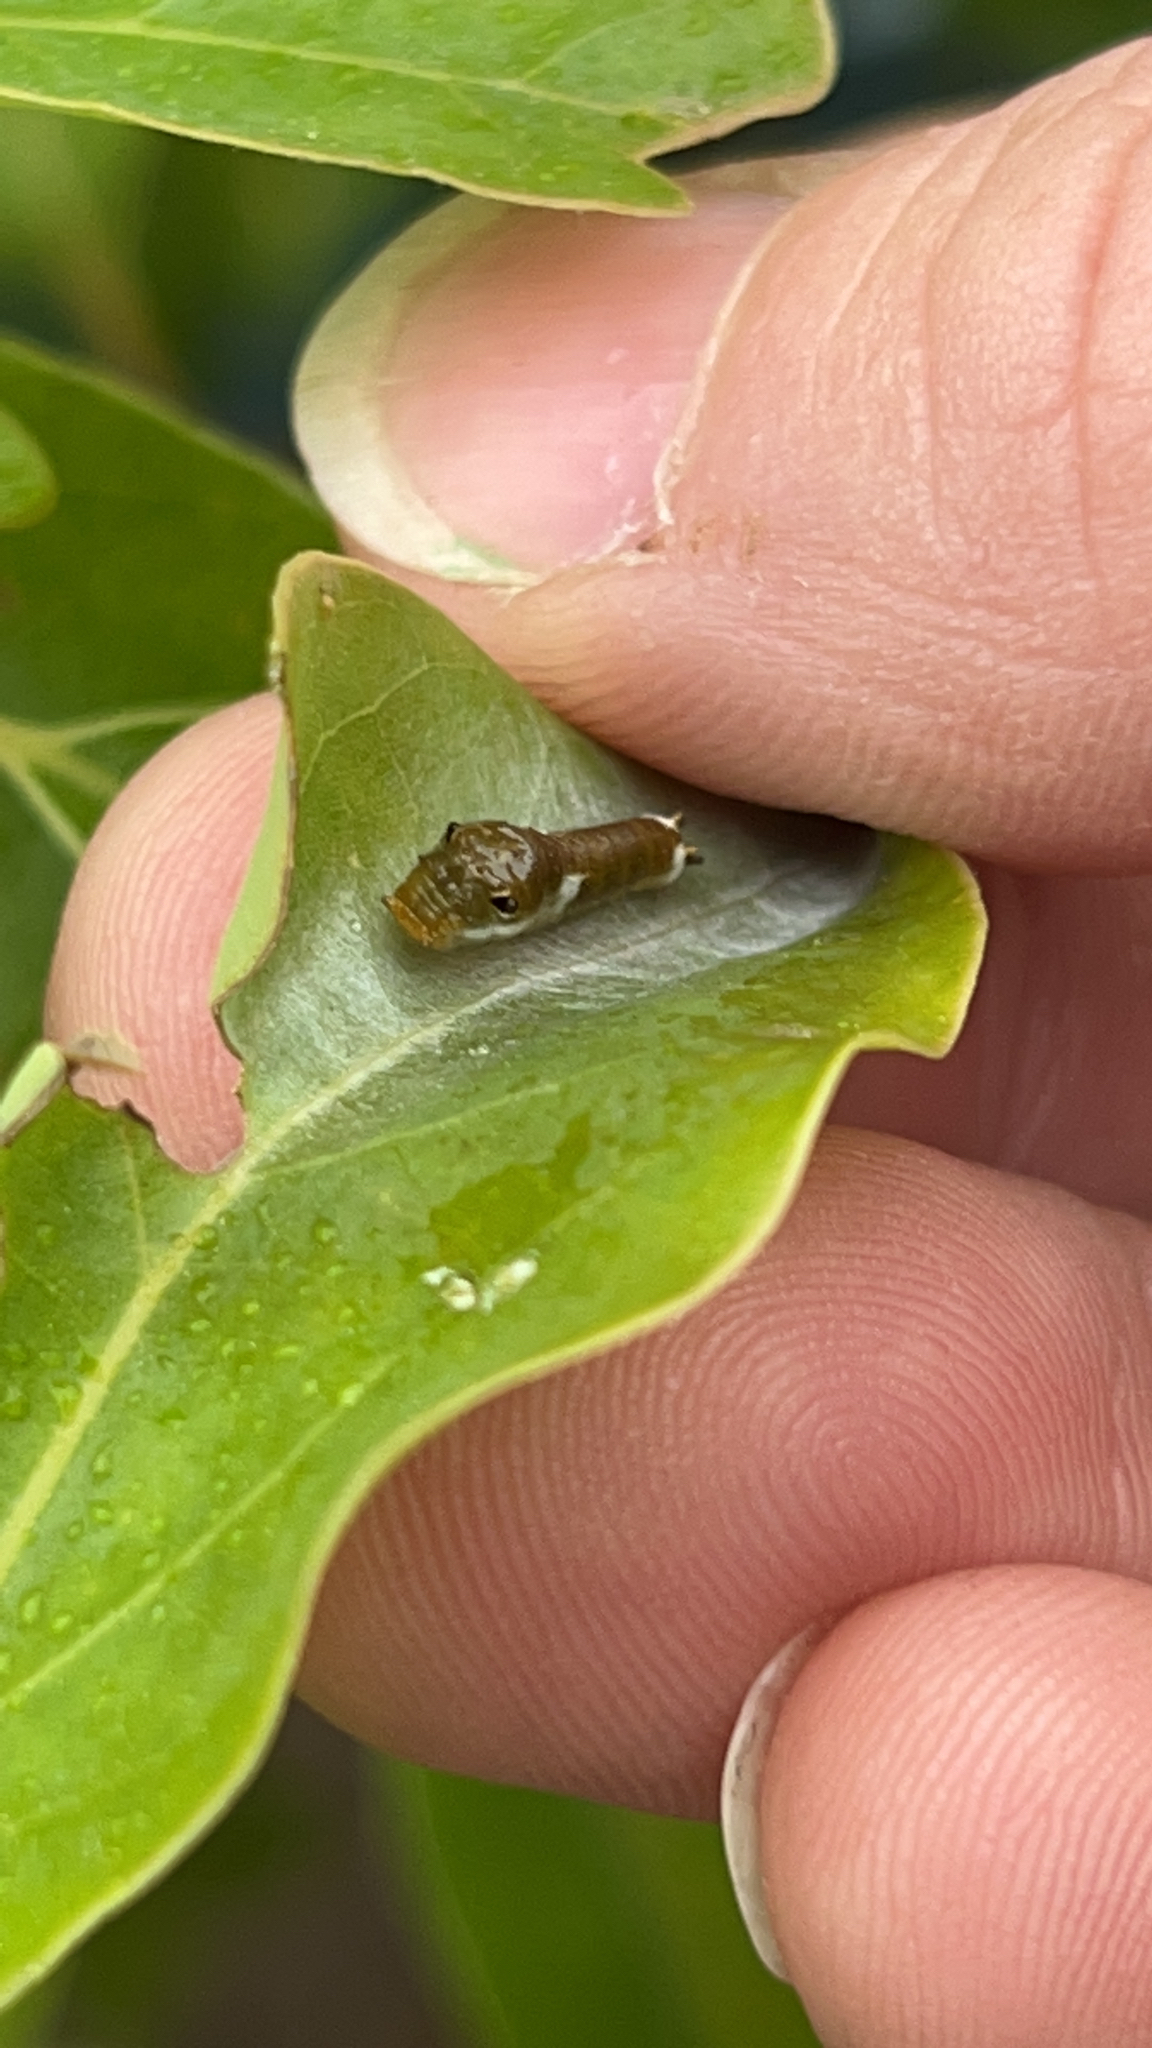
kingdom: Animalia
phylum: Arthropoda
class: Insecta
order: Lepidoptera
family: Papilionidae
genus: Papilio
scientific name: Papilio troilus
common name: Spicebush swallowtail
